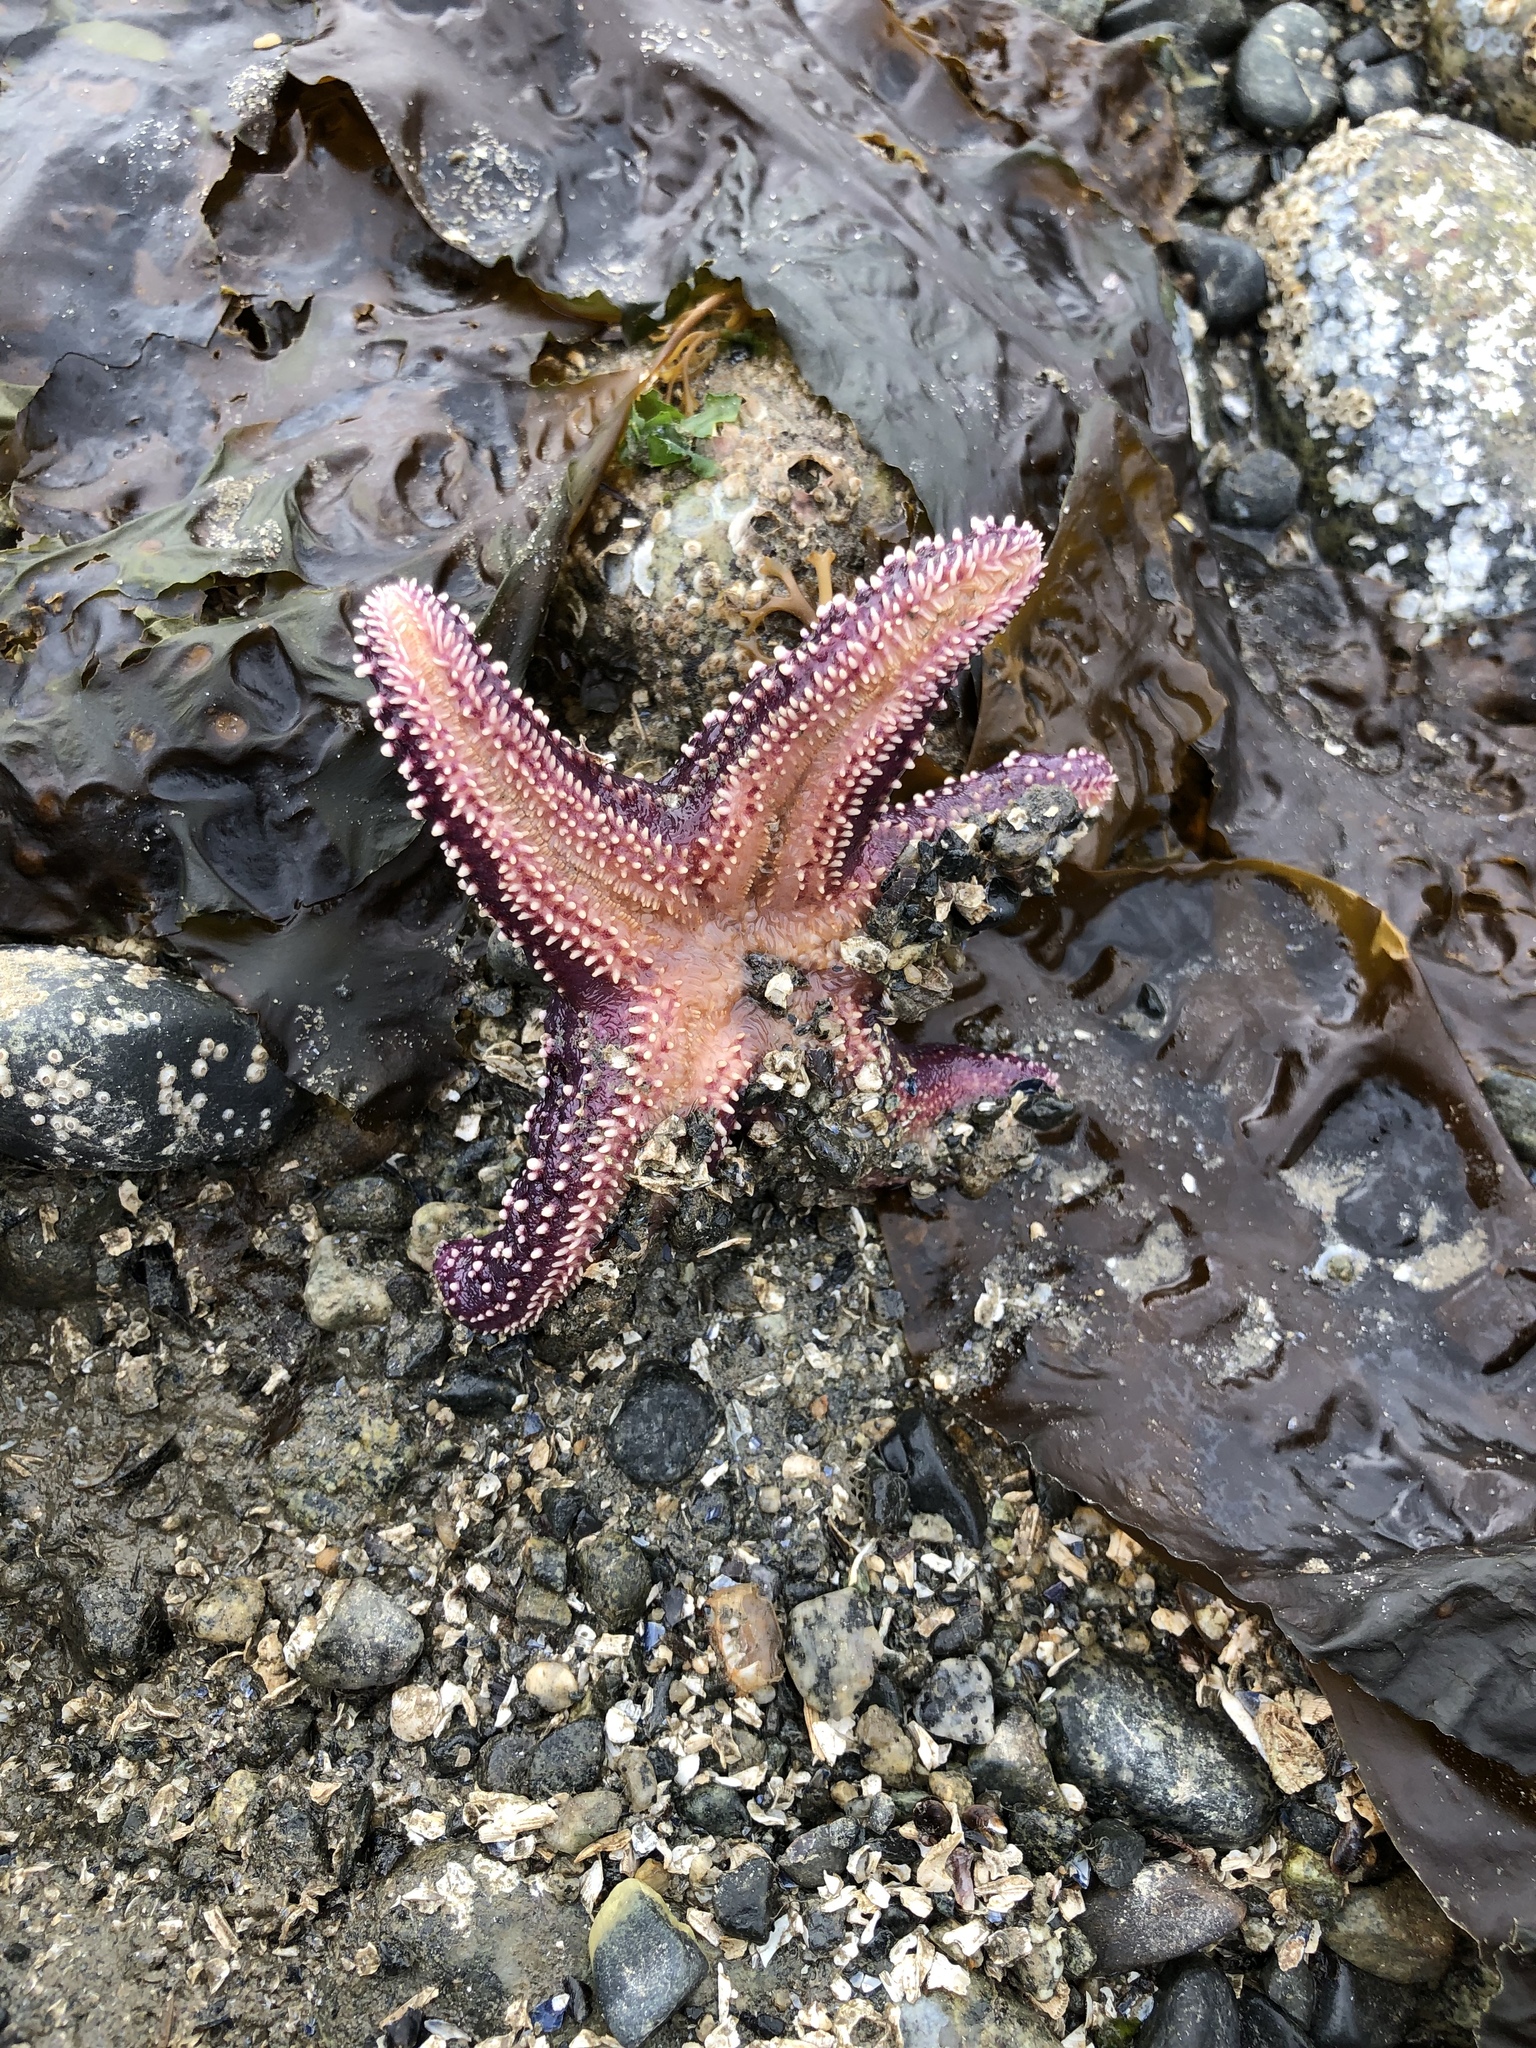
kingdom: Animalia
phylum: Echinodermata
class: Asteroidea
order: Forcipulatida
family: Asteriidae
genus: Pisaster
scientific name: Pisaster ochraceus
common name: Ochre stars
